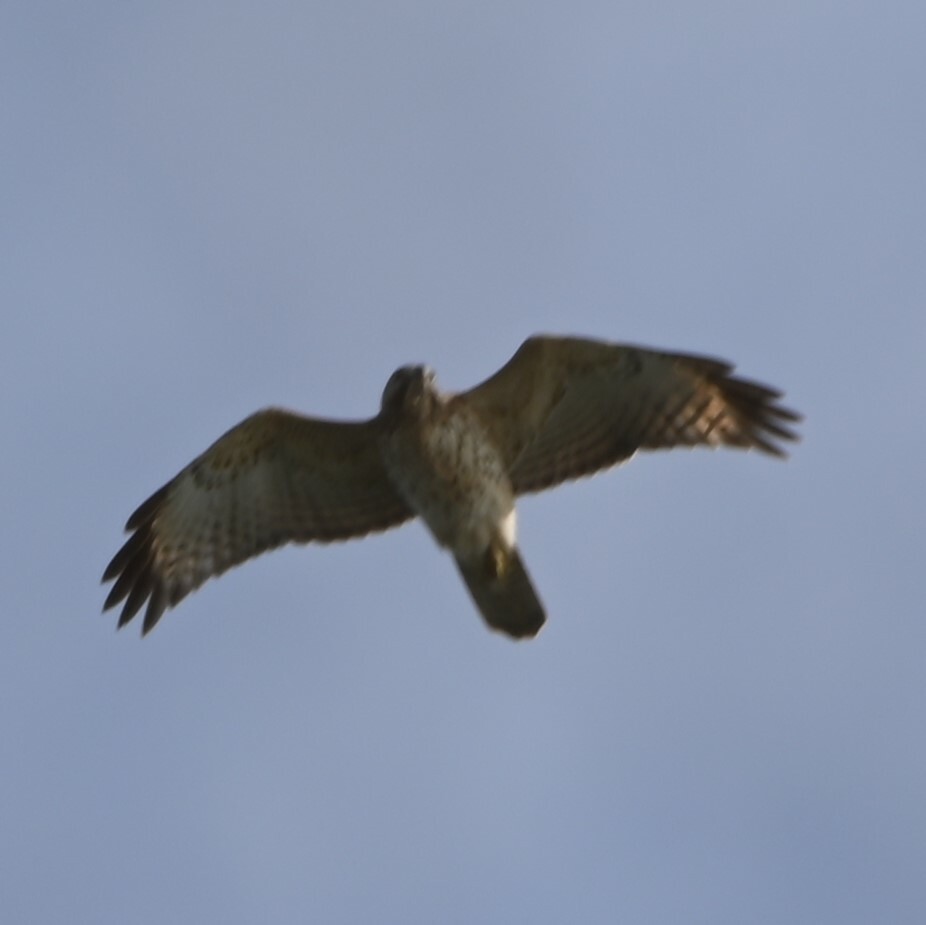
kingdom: Animalia
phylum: Chordata
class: Aves
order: Accipitriformes
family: Accipitridae
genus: Buteo
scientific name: Buteo lineatus
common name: Red-shouldered hawk
